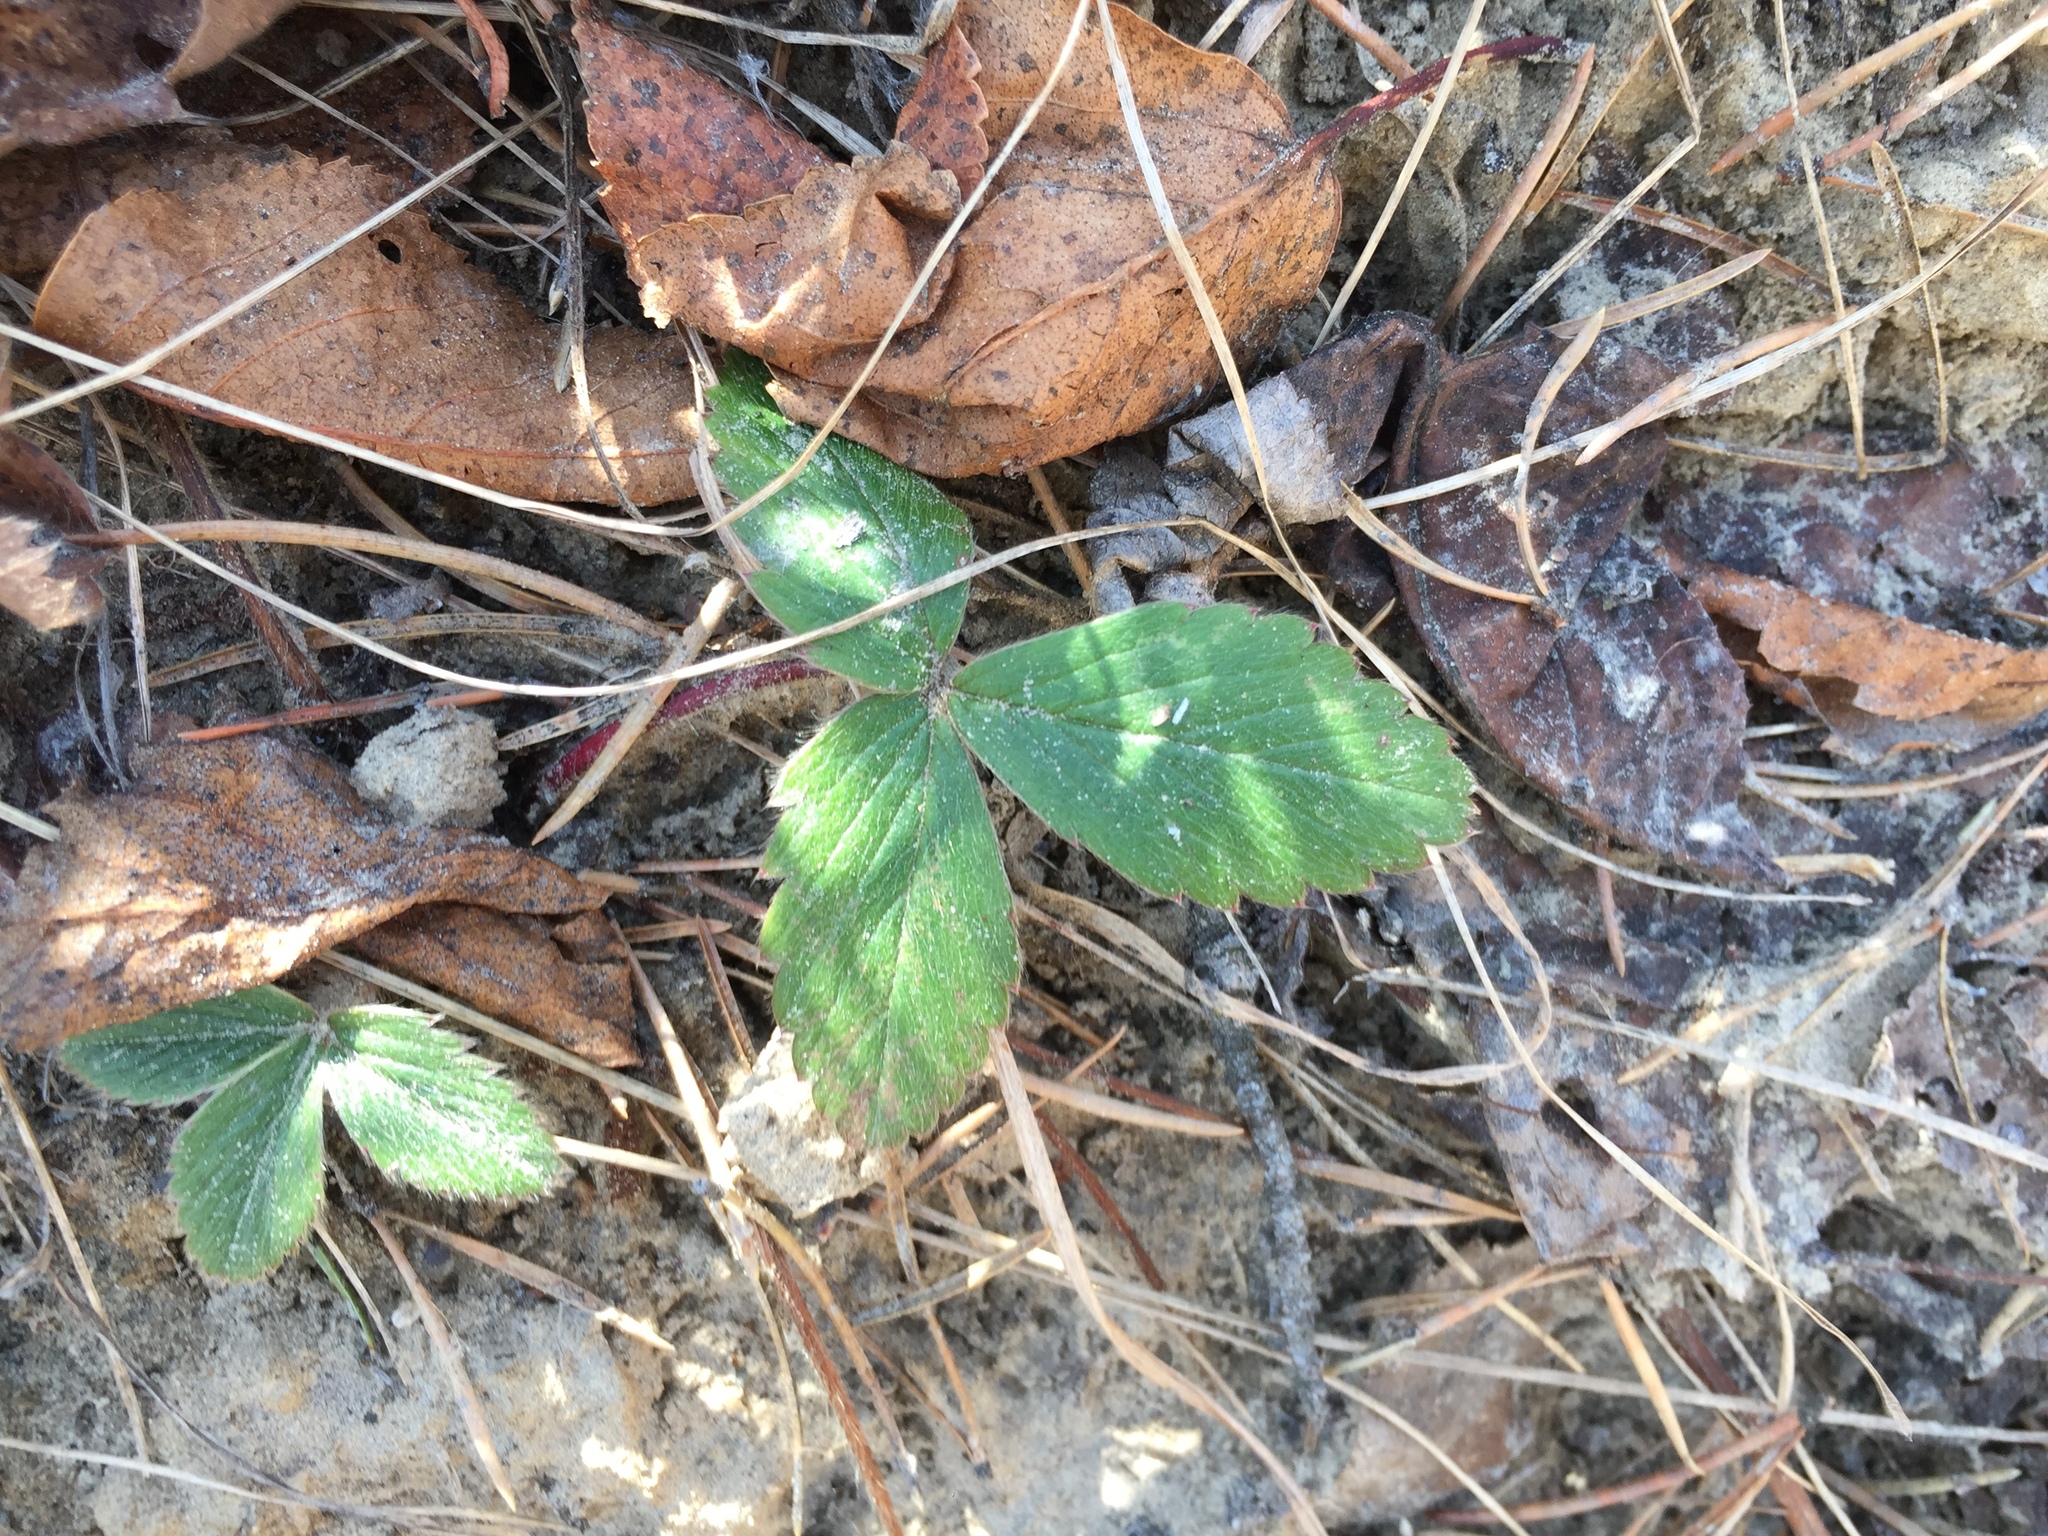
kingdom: Plantae
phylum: Tracheophyta
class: Magnoliopsida
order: Rosales
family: Rosaceae
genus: Fragaria
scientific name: Fragaria virginiana
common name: Thickleaved wild strawberry
